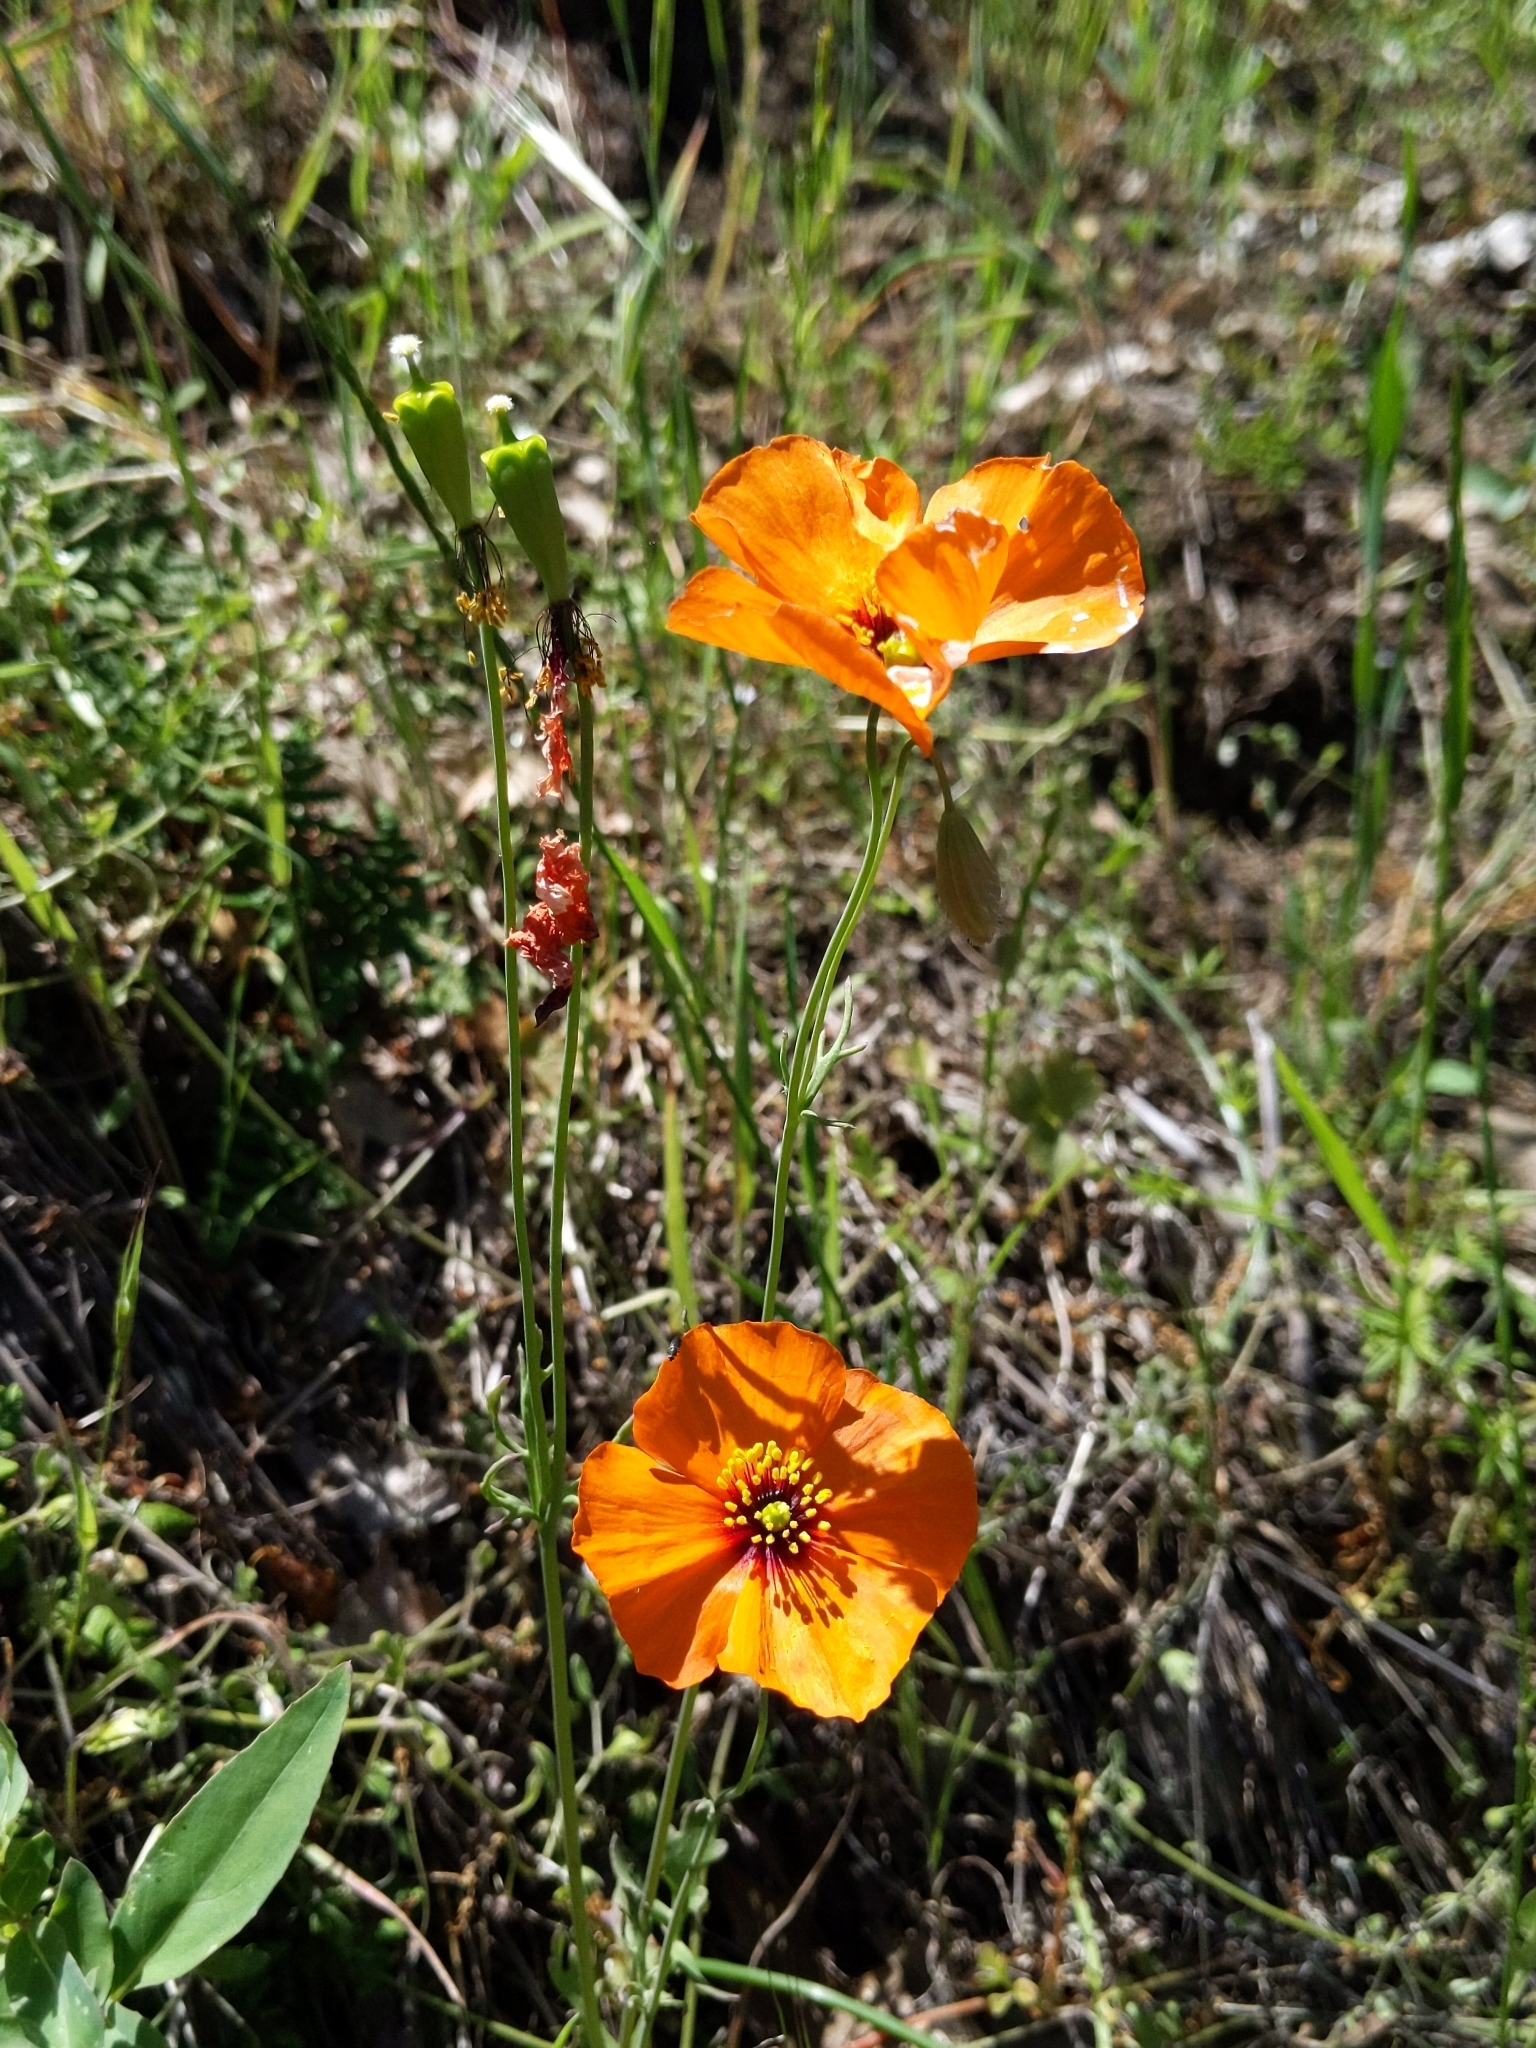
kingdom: Plantae
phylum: Tracheophyta
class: Magnoliopsida
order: Ranunculales
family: Papaveraceae
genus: Stylomecon
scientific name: Stylomecon heterophylla
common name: Flaming-poppy
